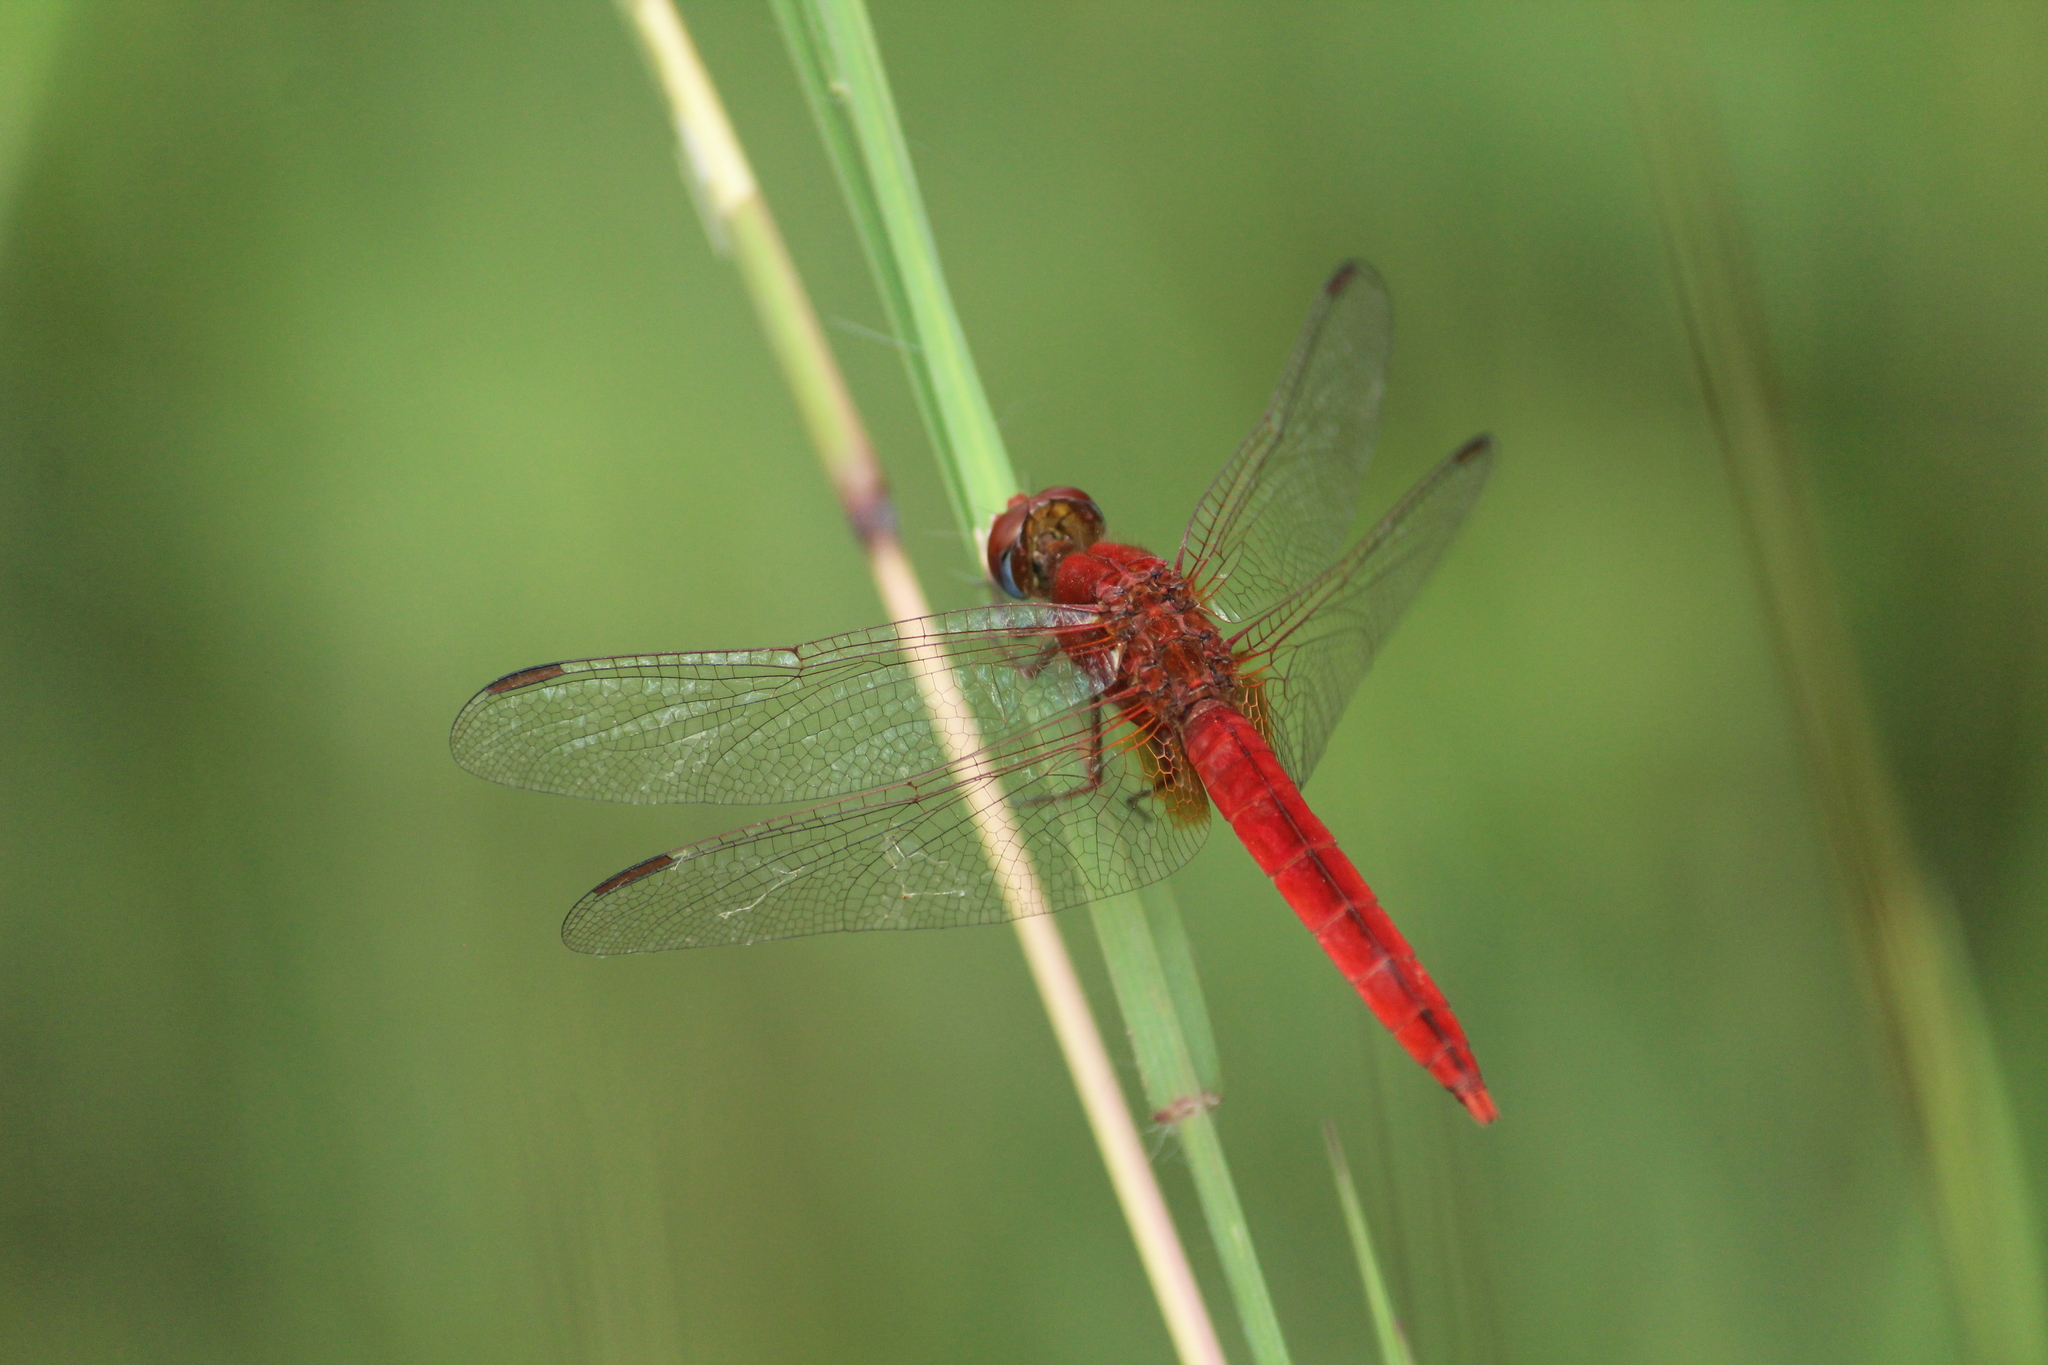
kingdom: Animalia
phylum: Arthropoda
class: Insecta
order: Odonata
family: Libellulidae
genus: Crocothemis
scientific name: Crocothemis servilia
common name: Scarlet skimmer
